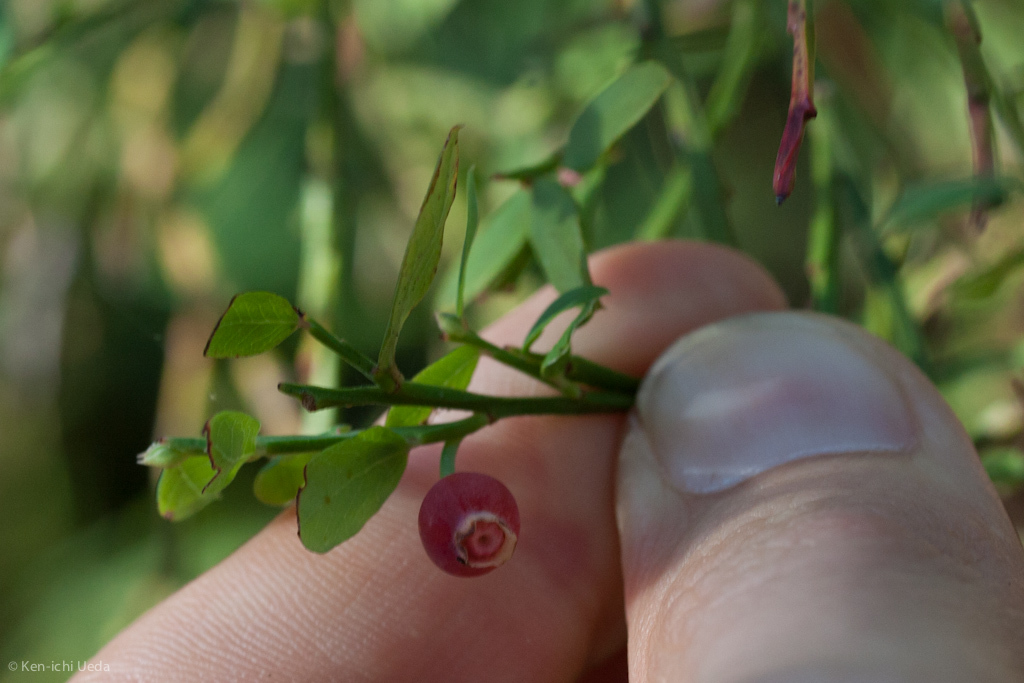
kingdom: Plantae
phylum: Tracheophyta
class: Magnoliopsida
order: Ericales
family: Ericaceae
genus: Vaccinium
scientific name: Vaccinium parvifolium
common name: Red-huckleberry
